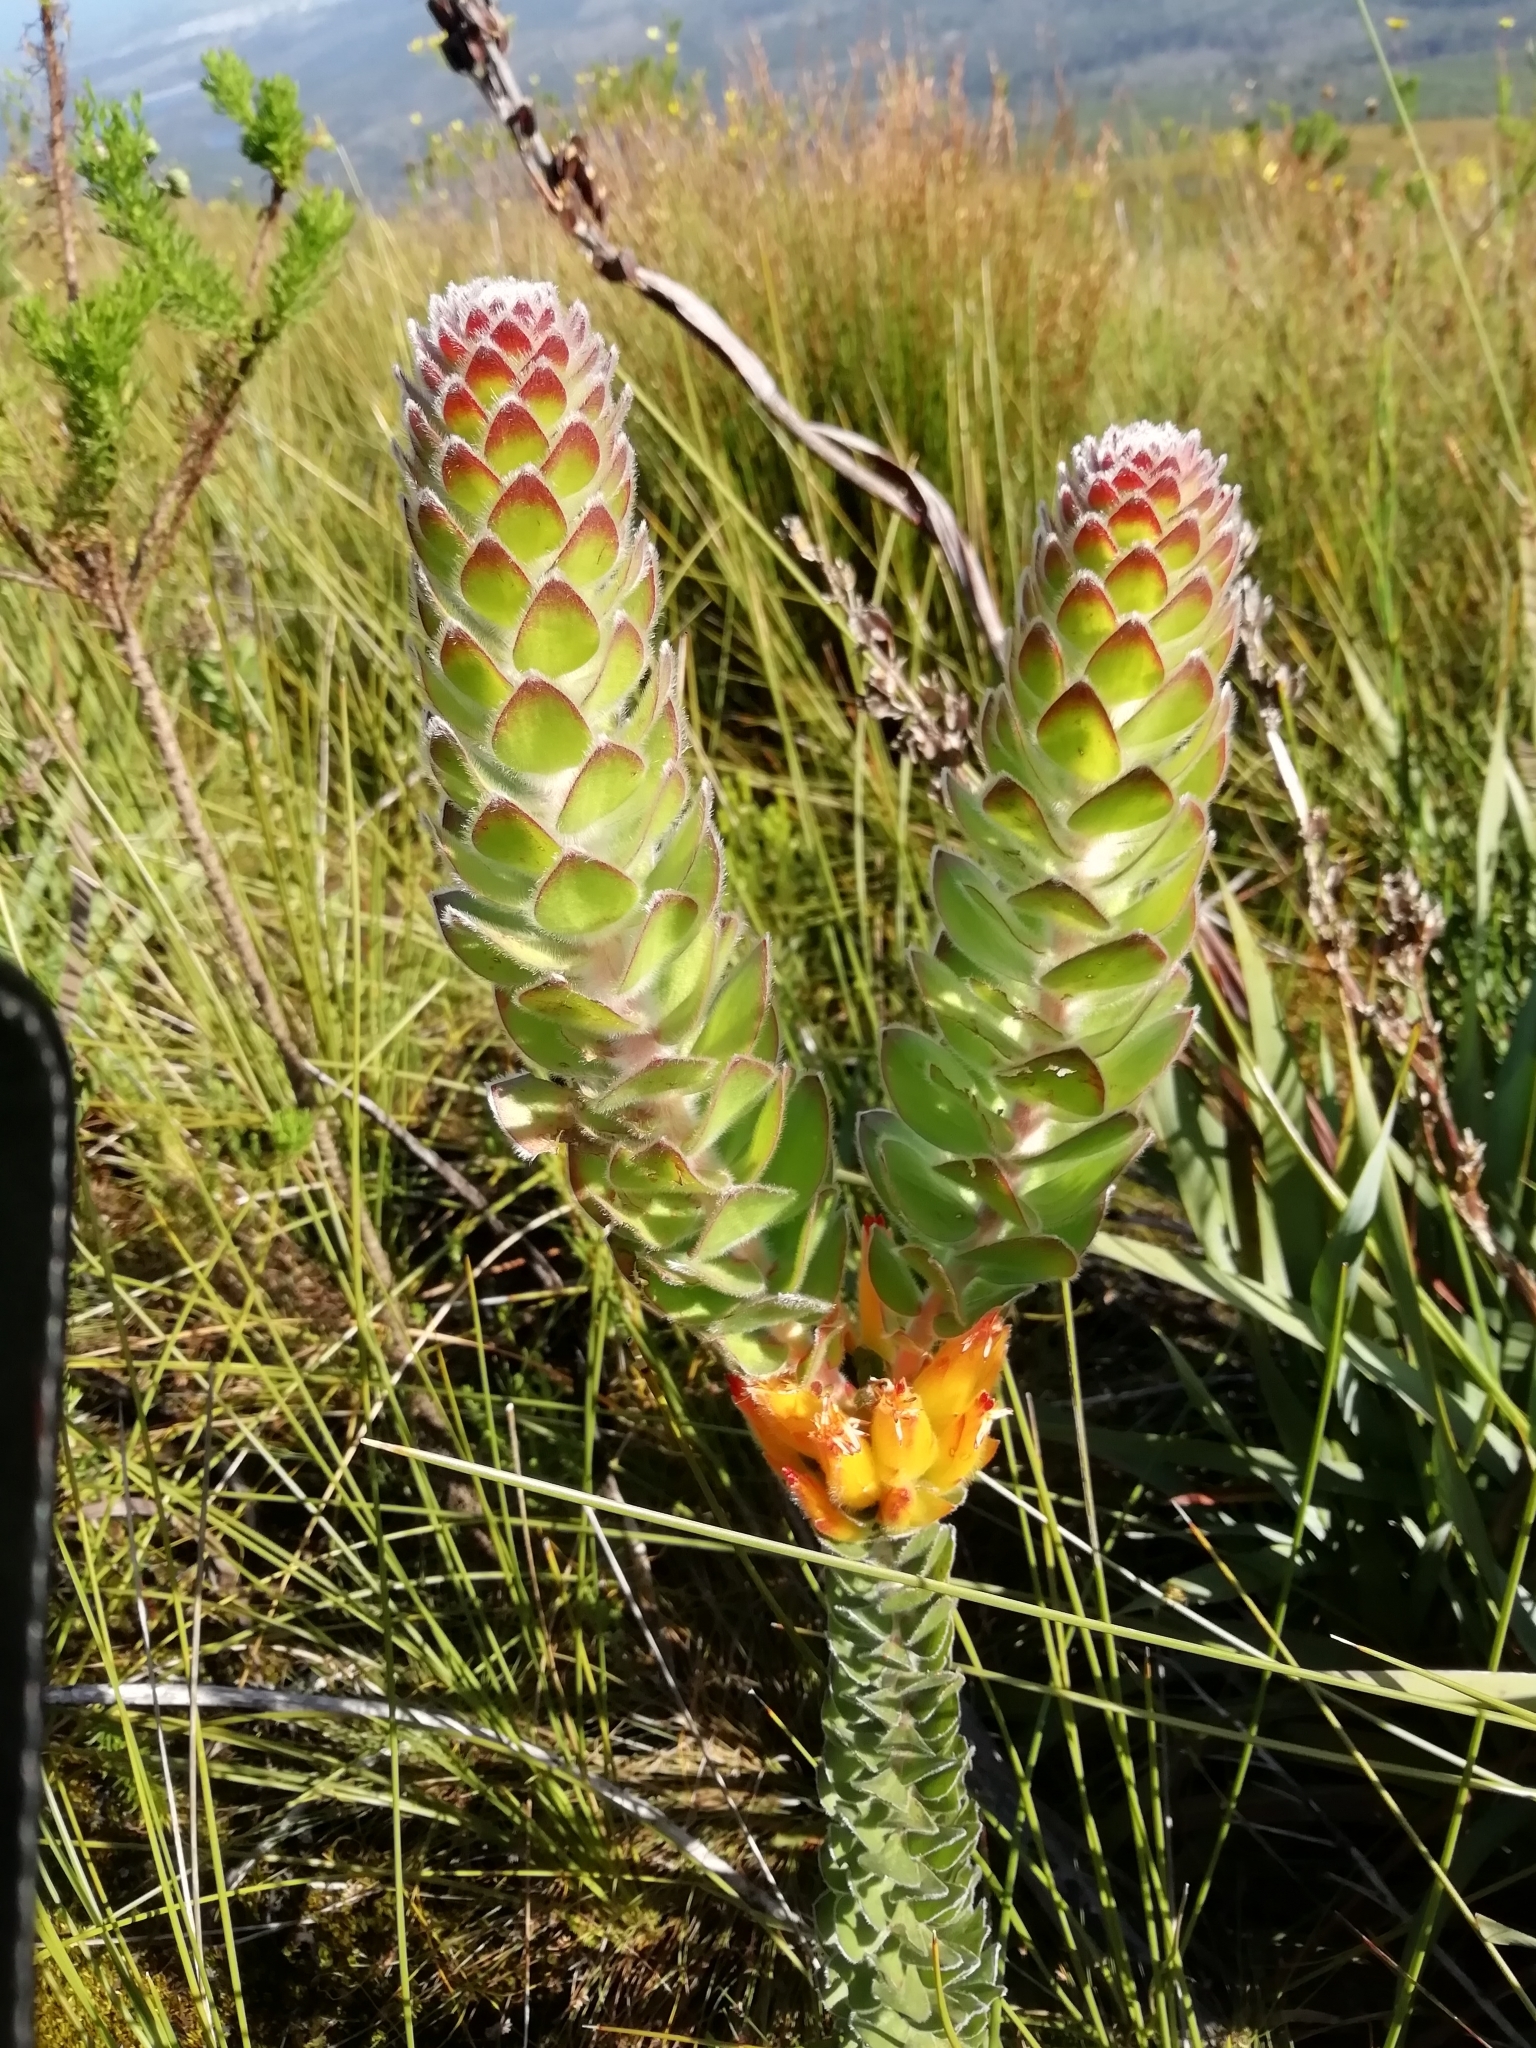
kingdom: Plantae
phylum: Tracheophyta
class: Magnoliopsida
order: Proteales
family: Proteaceae
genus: Mimetes
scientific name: Mimetes pauciflora
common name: Three-flowered pagoda
